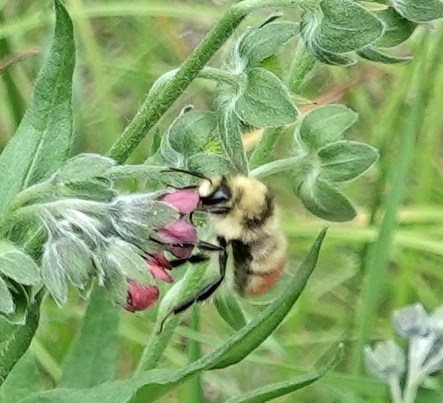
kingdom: Animalia
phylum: Arthropoda
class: Insecta
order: Hymenoptera
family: Apidae
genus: Bombus
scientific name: Bombus centralis
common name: Central bumble bee
